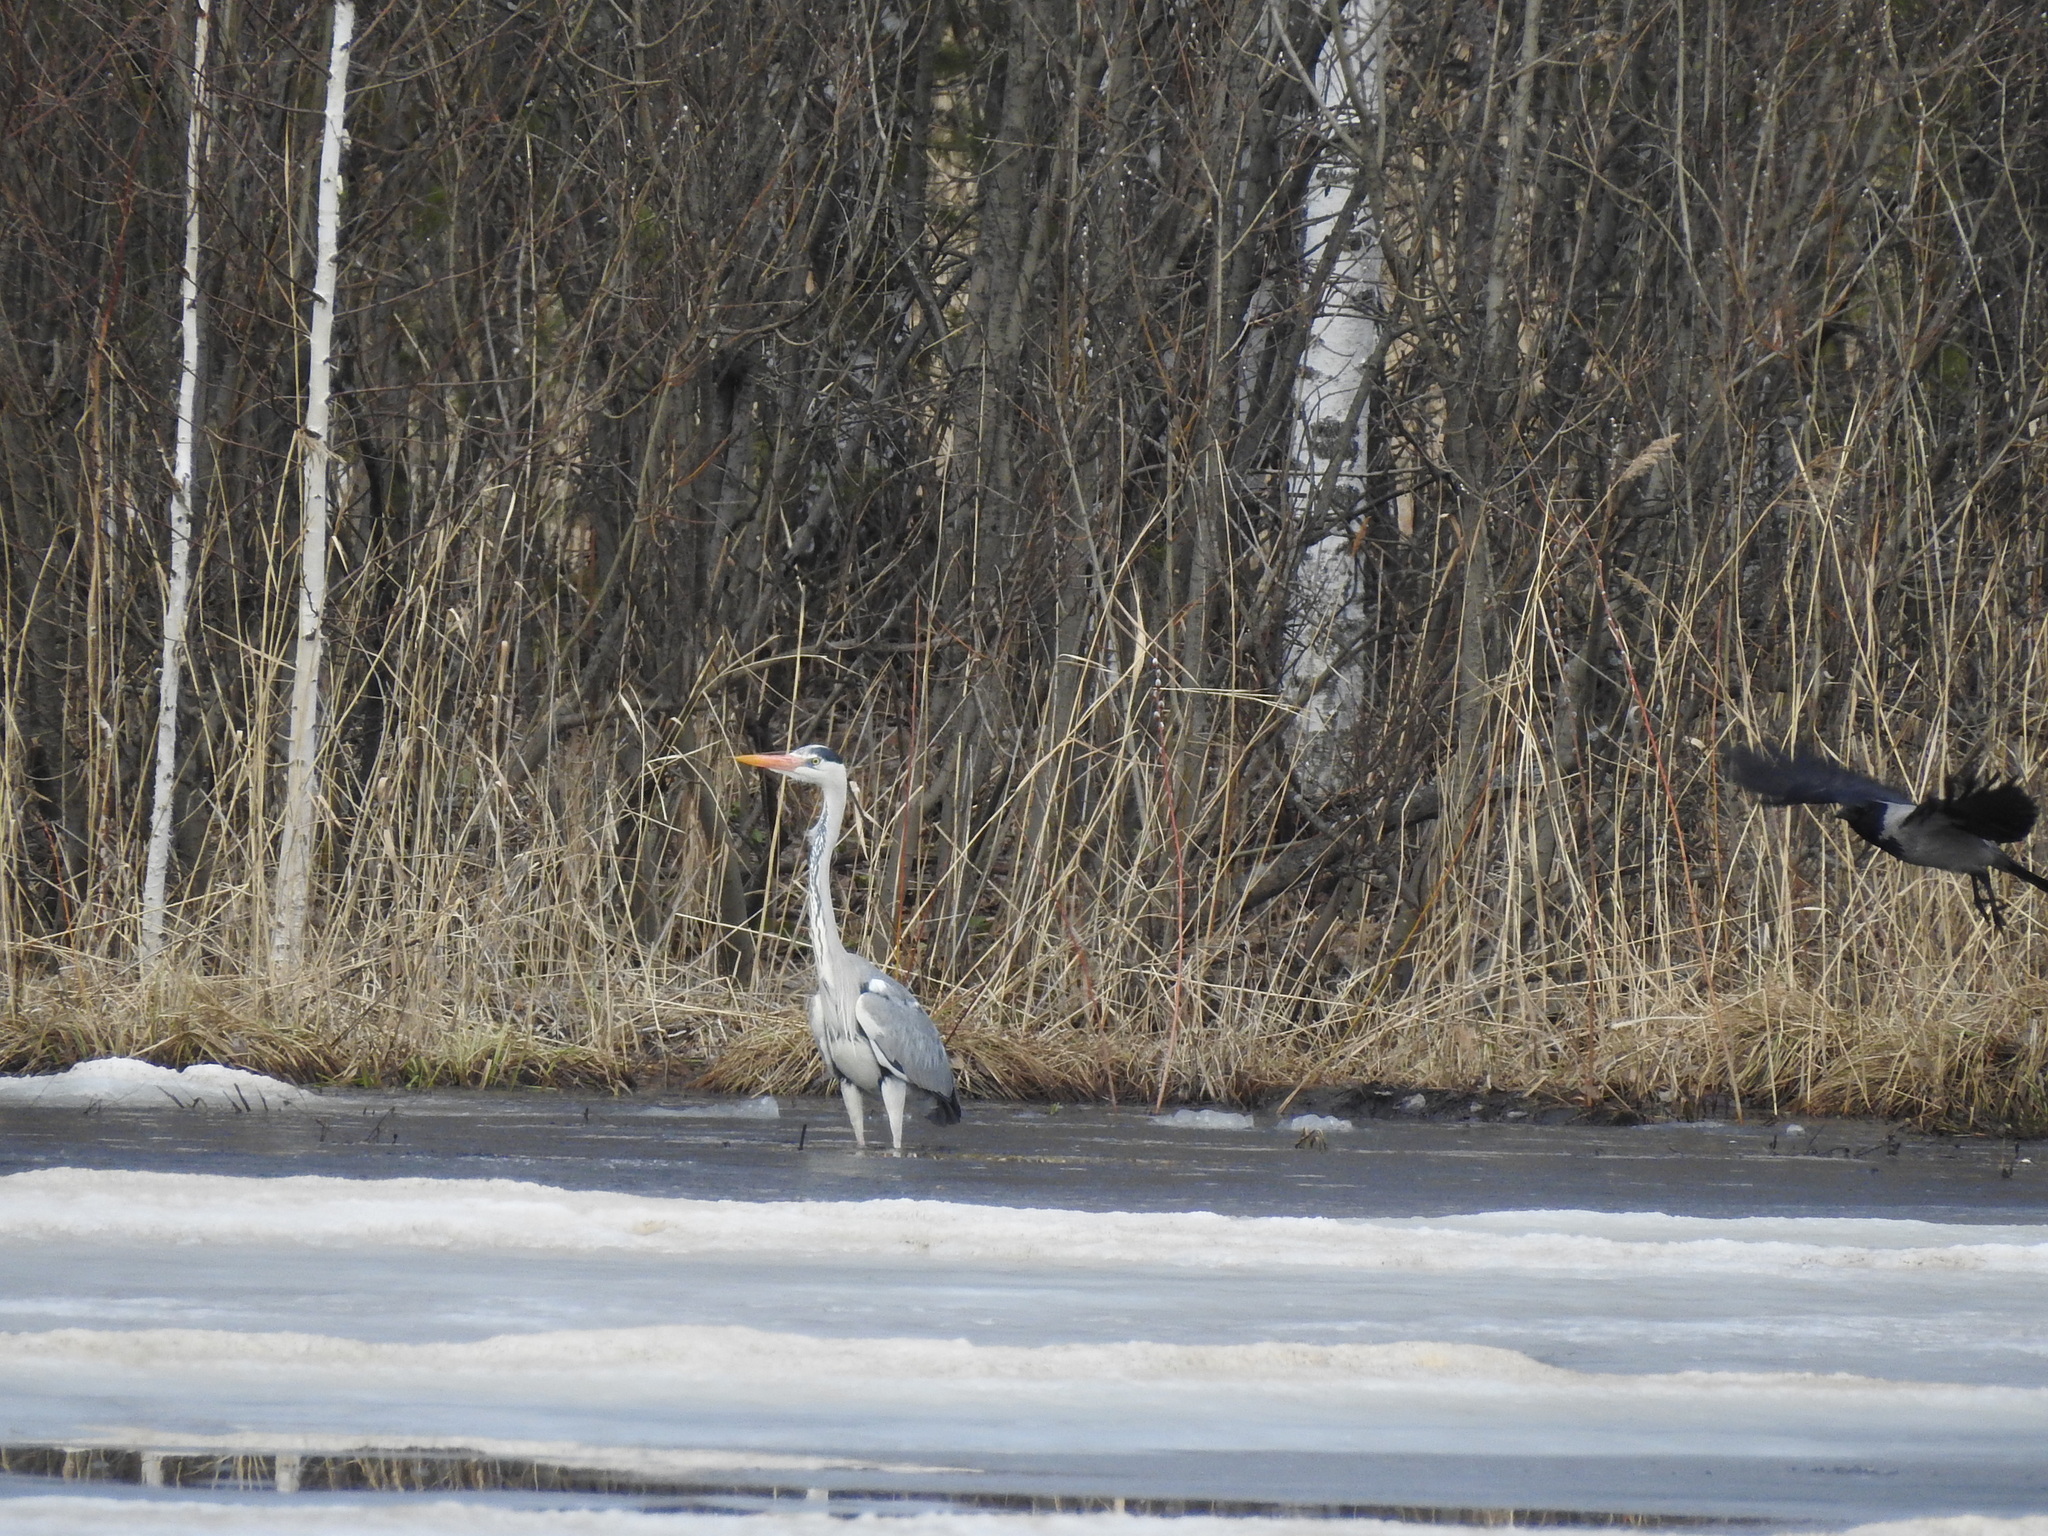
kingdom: Animalia
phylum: Chordata
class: Aves
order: Pelecaniformes
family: Ardeidae
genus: Ardea
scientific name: Ardea cinerea
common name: Grey heron
